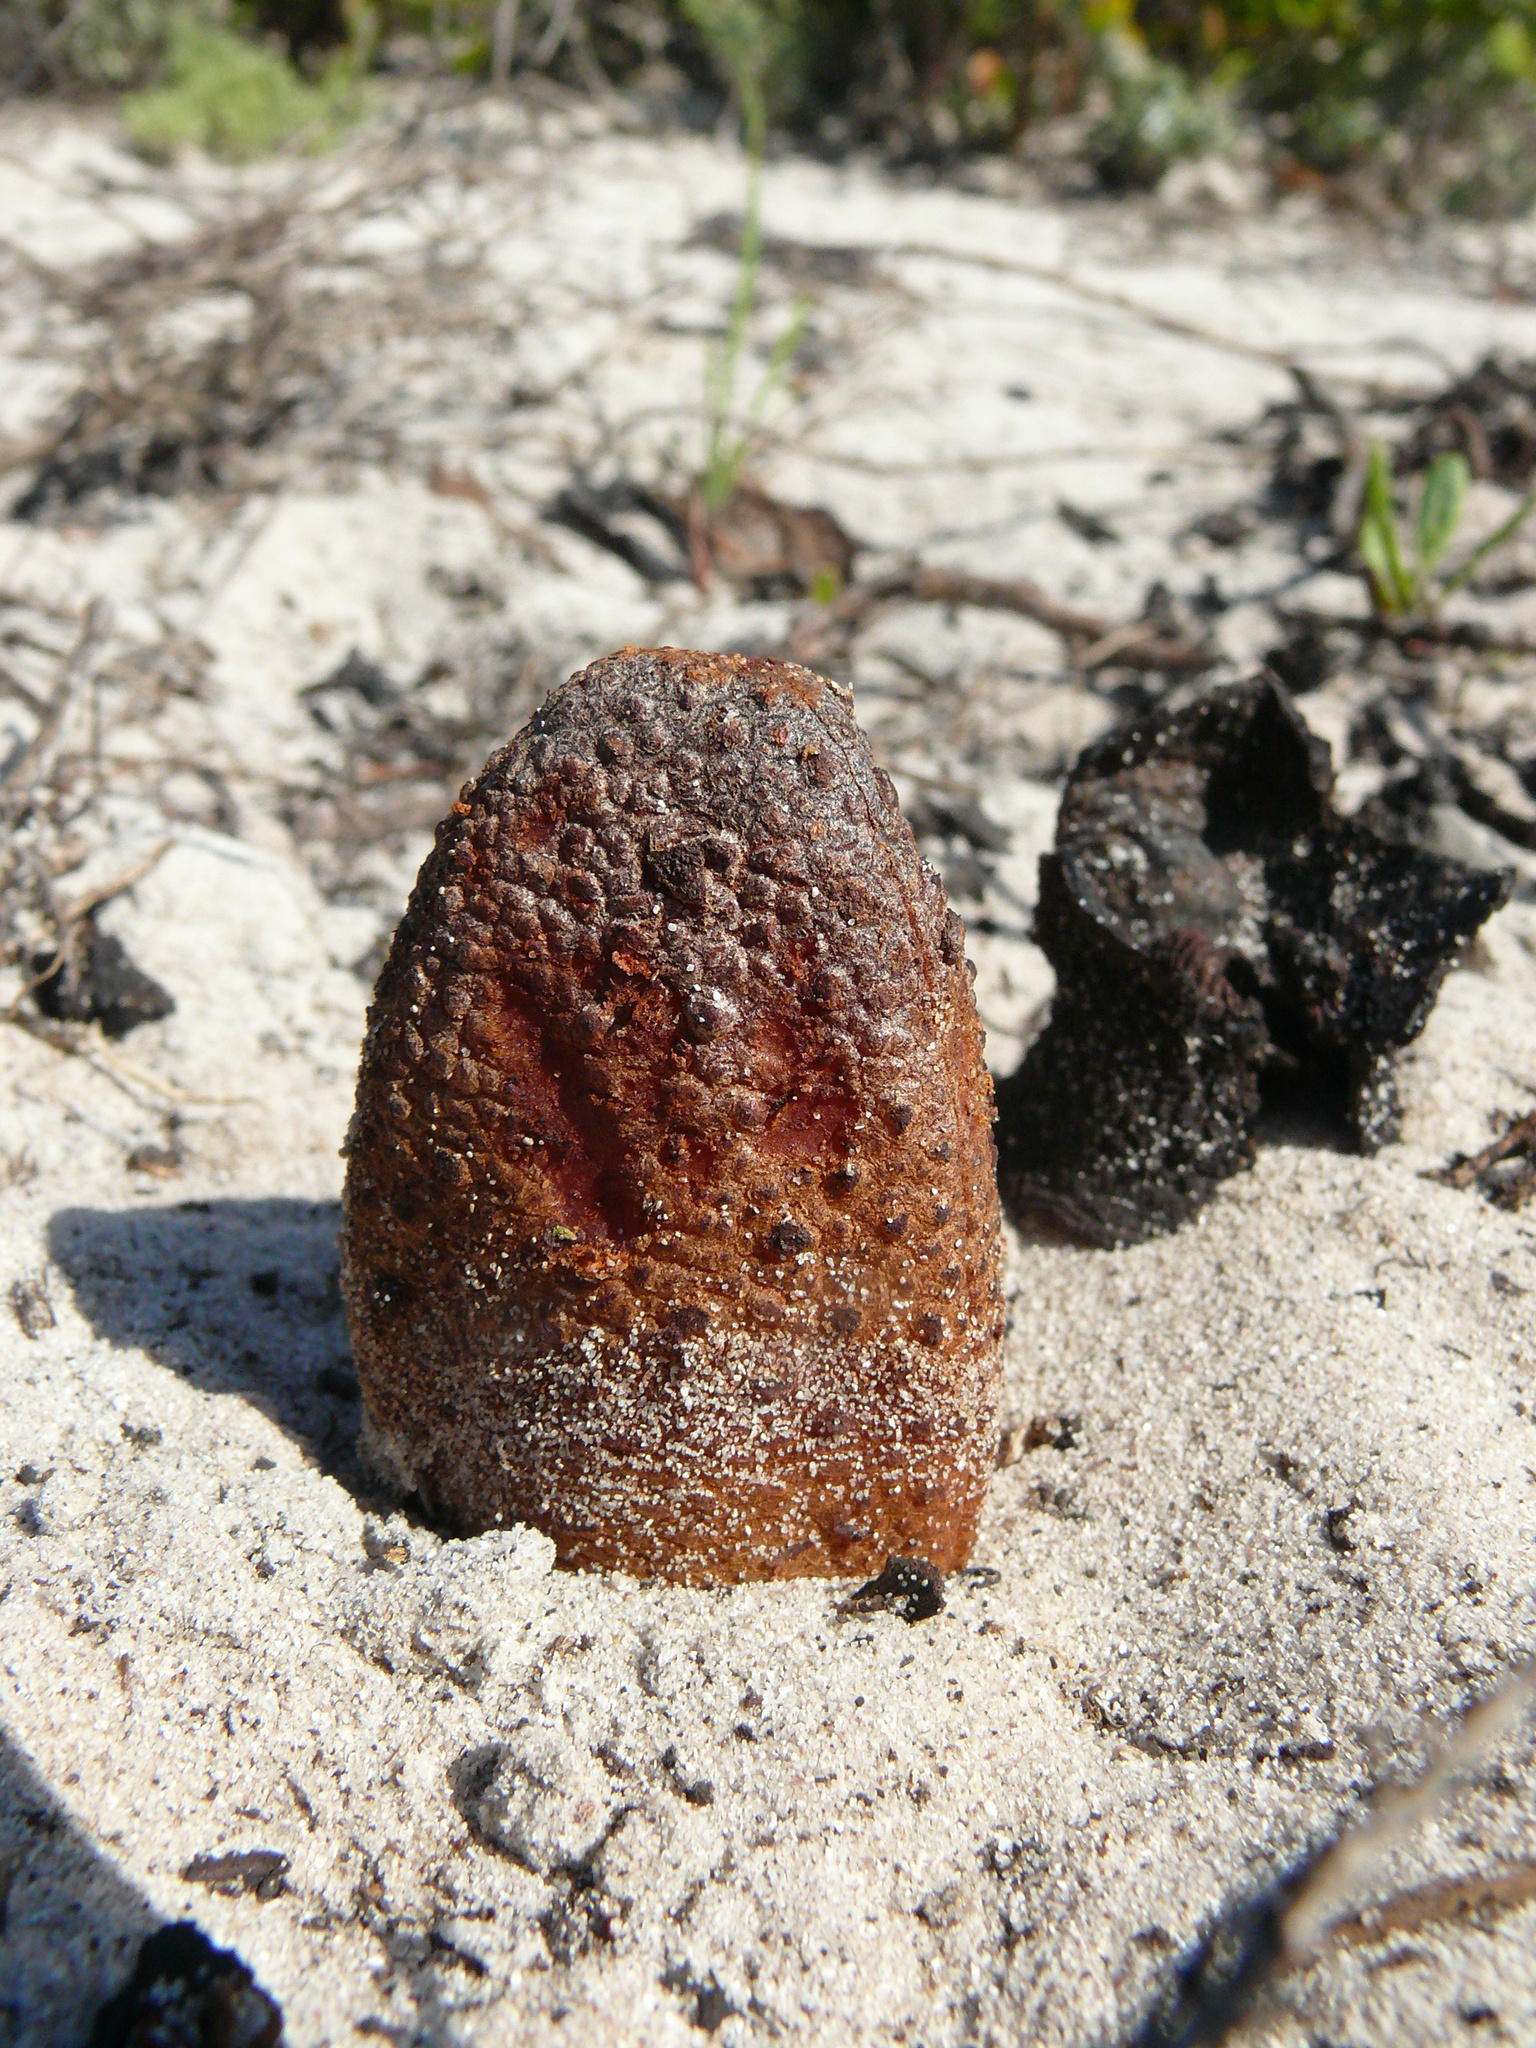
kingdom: Plantae
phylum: Tracheophyta
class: Magnoliopsida
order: Piperales
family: Hydnoraceae
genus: Hydnora
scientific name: Hydnora africana
